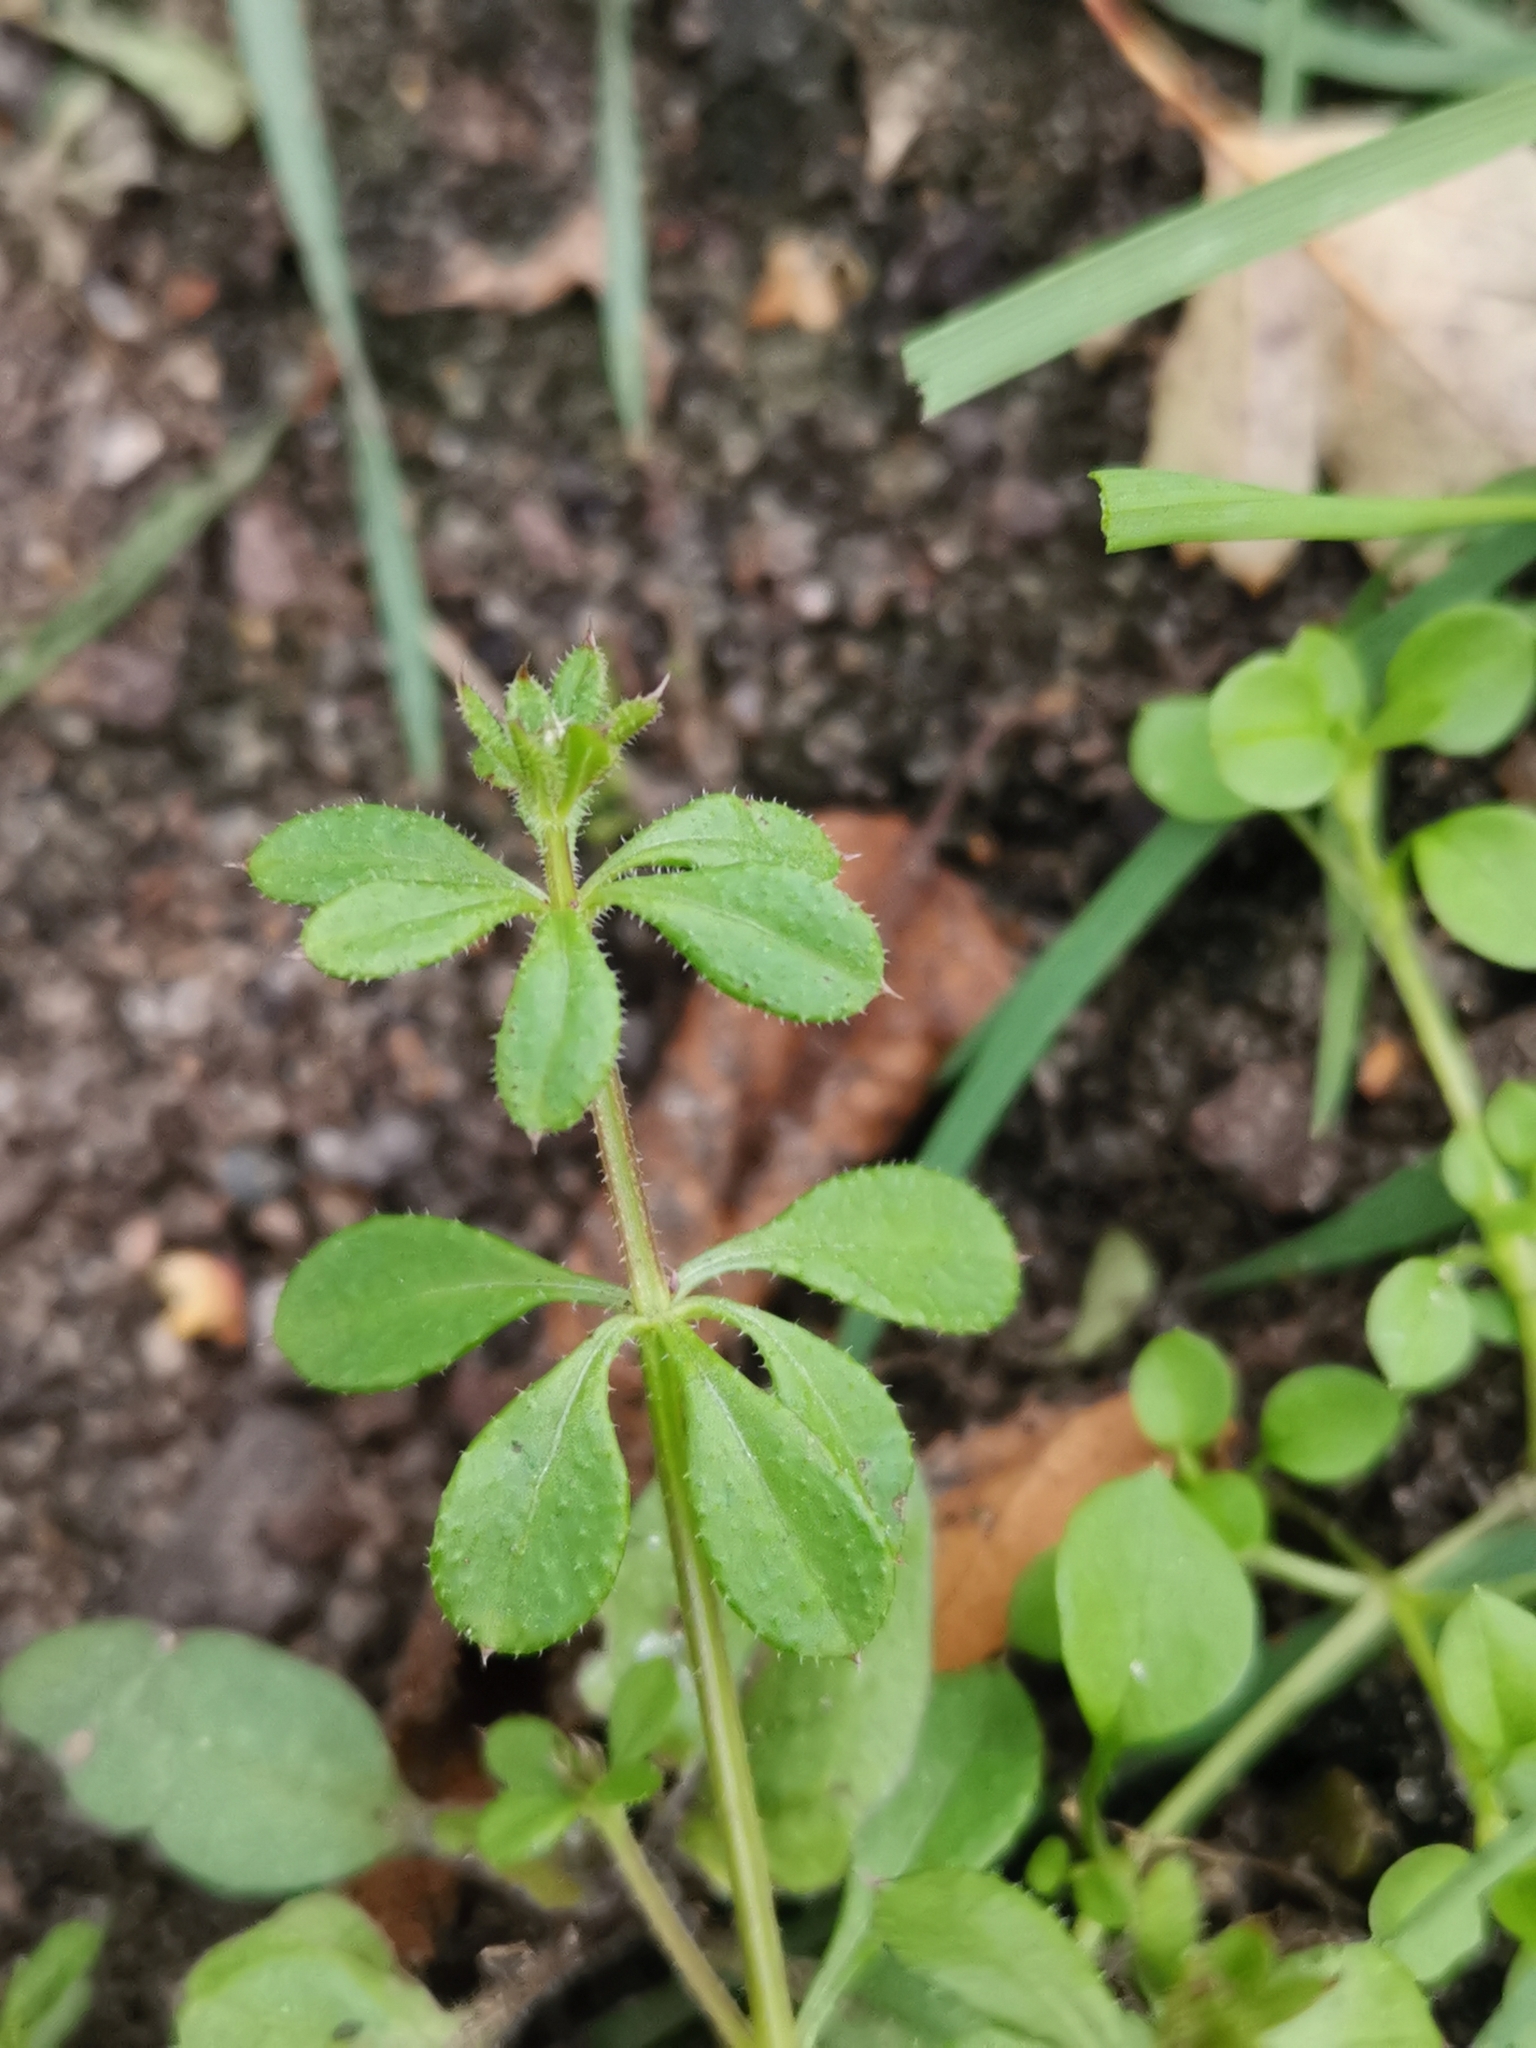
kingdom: Plantae
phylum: Tracheophyta
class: Magnoliopsida
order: Gentianales
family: Rubiaceae
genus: Galium
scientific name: Galium aparine
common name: Cleavers
